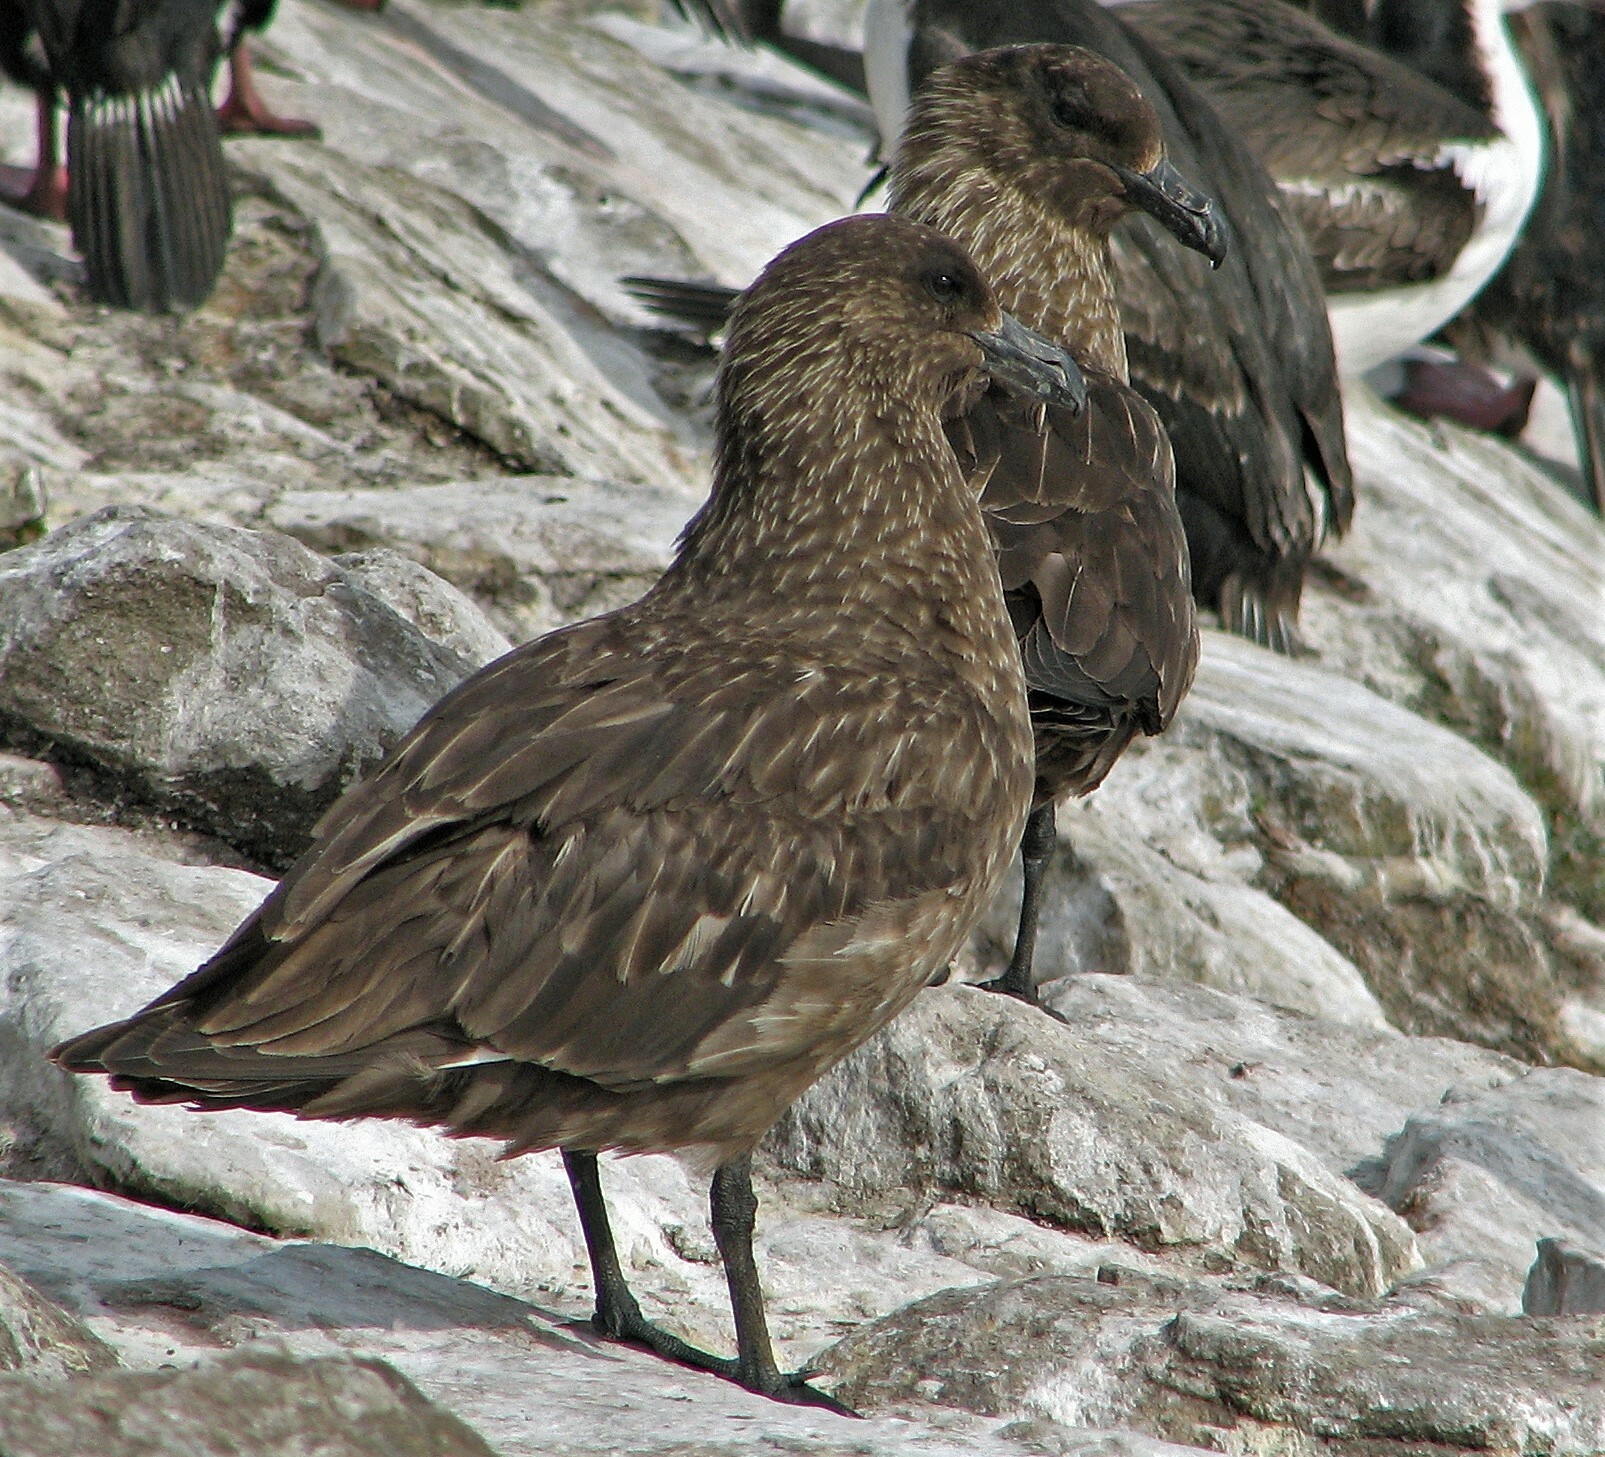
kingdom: Animalia
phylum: Chordata
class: Aves
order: Charadriiformes
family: Stercorariidae
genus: Stercorarius
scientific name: Stercorarius antarcticus
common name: Brown skua
